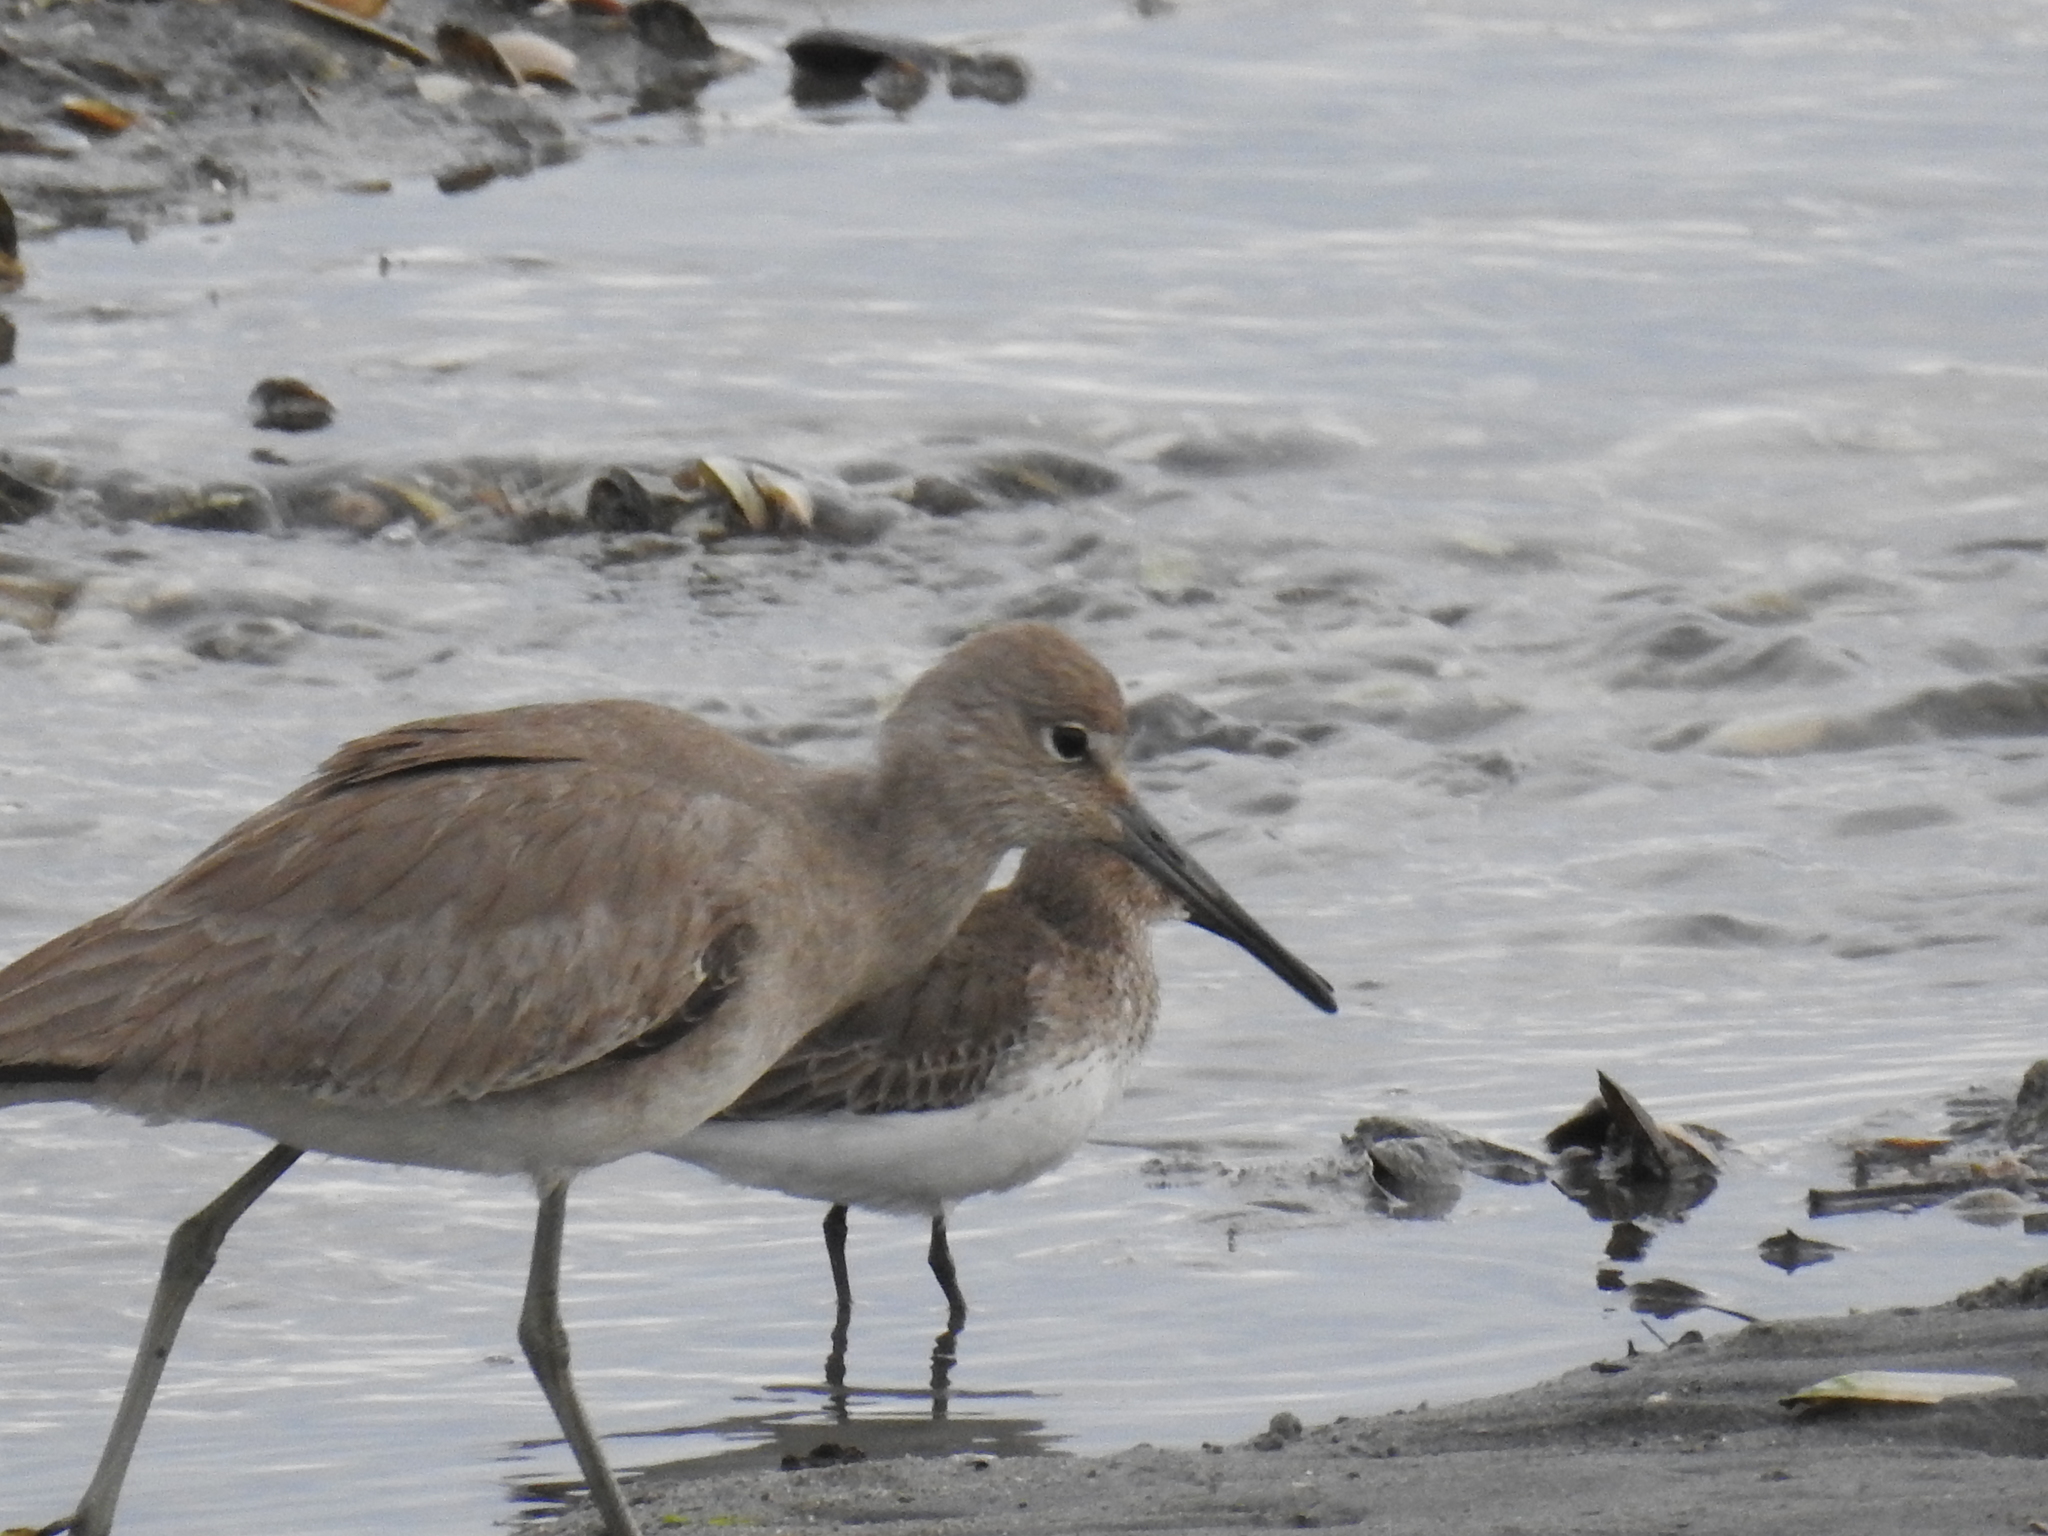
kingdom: Animalia
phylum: Chordata
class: Aves
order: Charadriiformes
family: Scolopacidae
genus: Tringa
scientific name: Tringa semipalmata
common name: Willet
